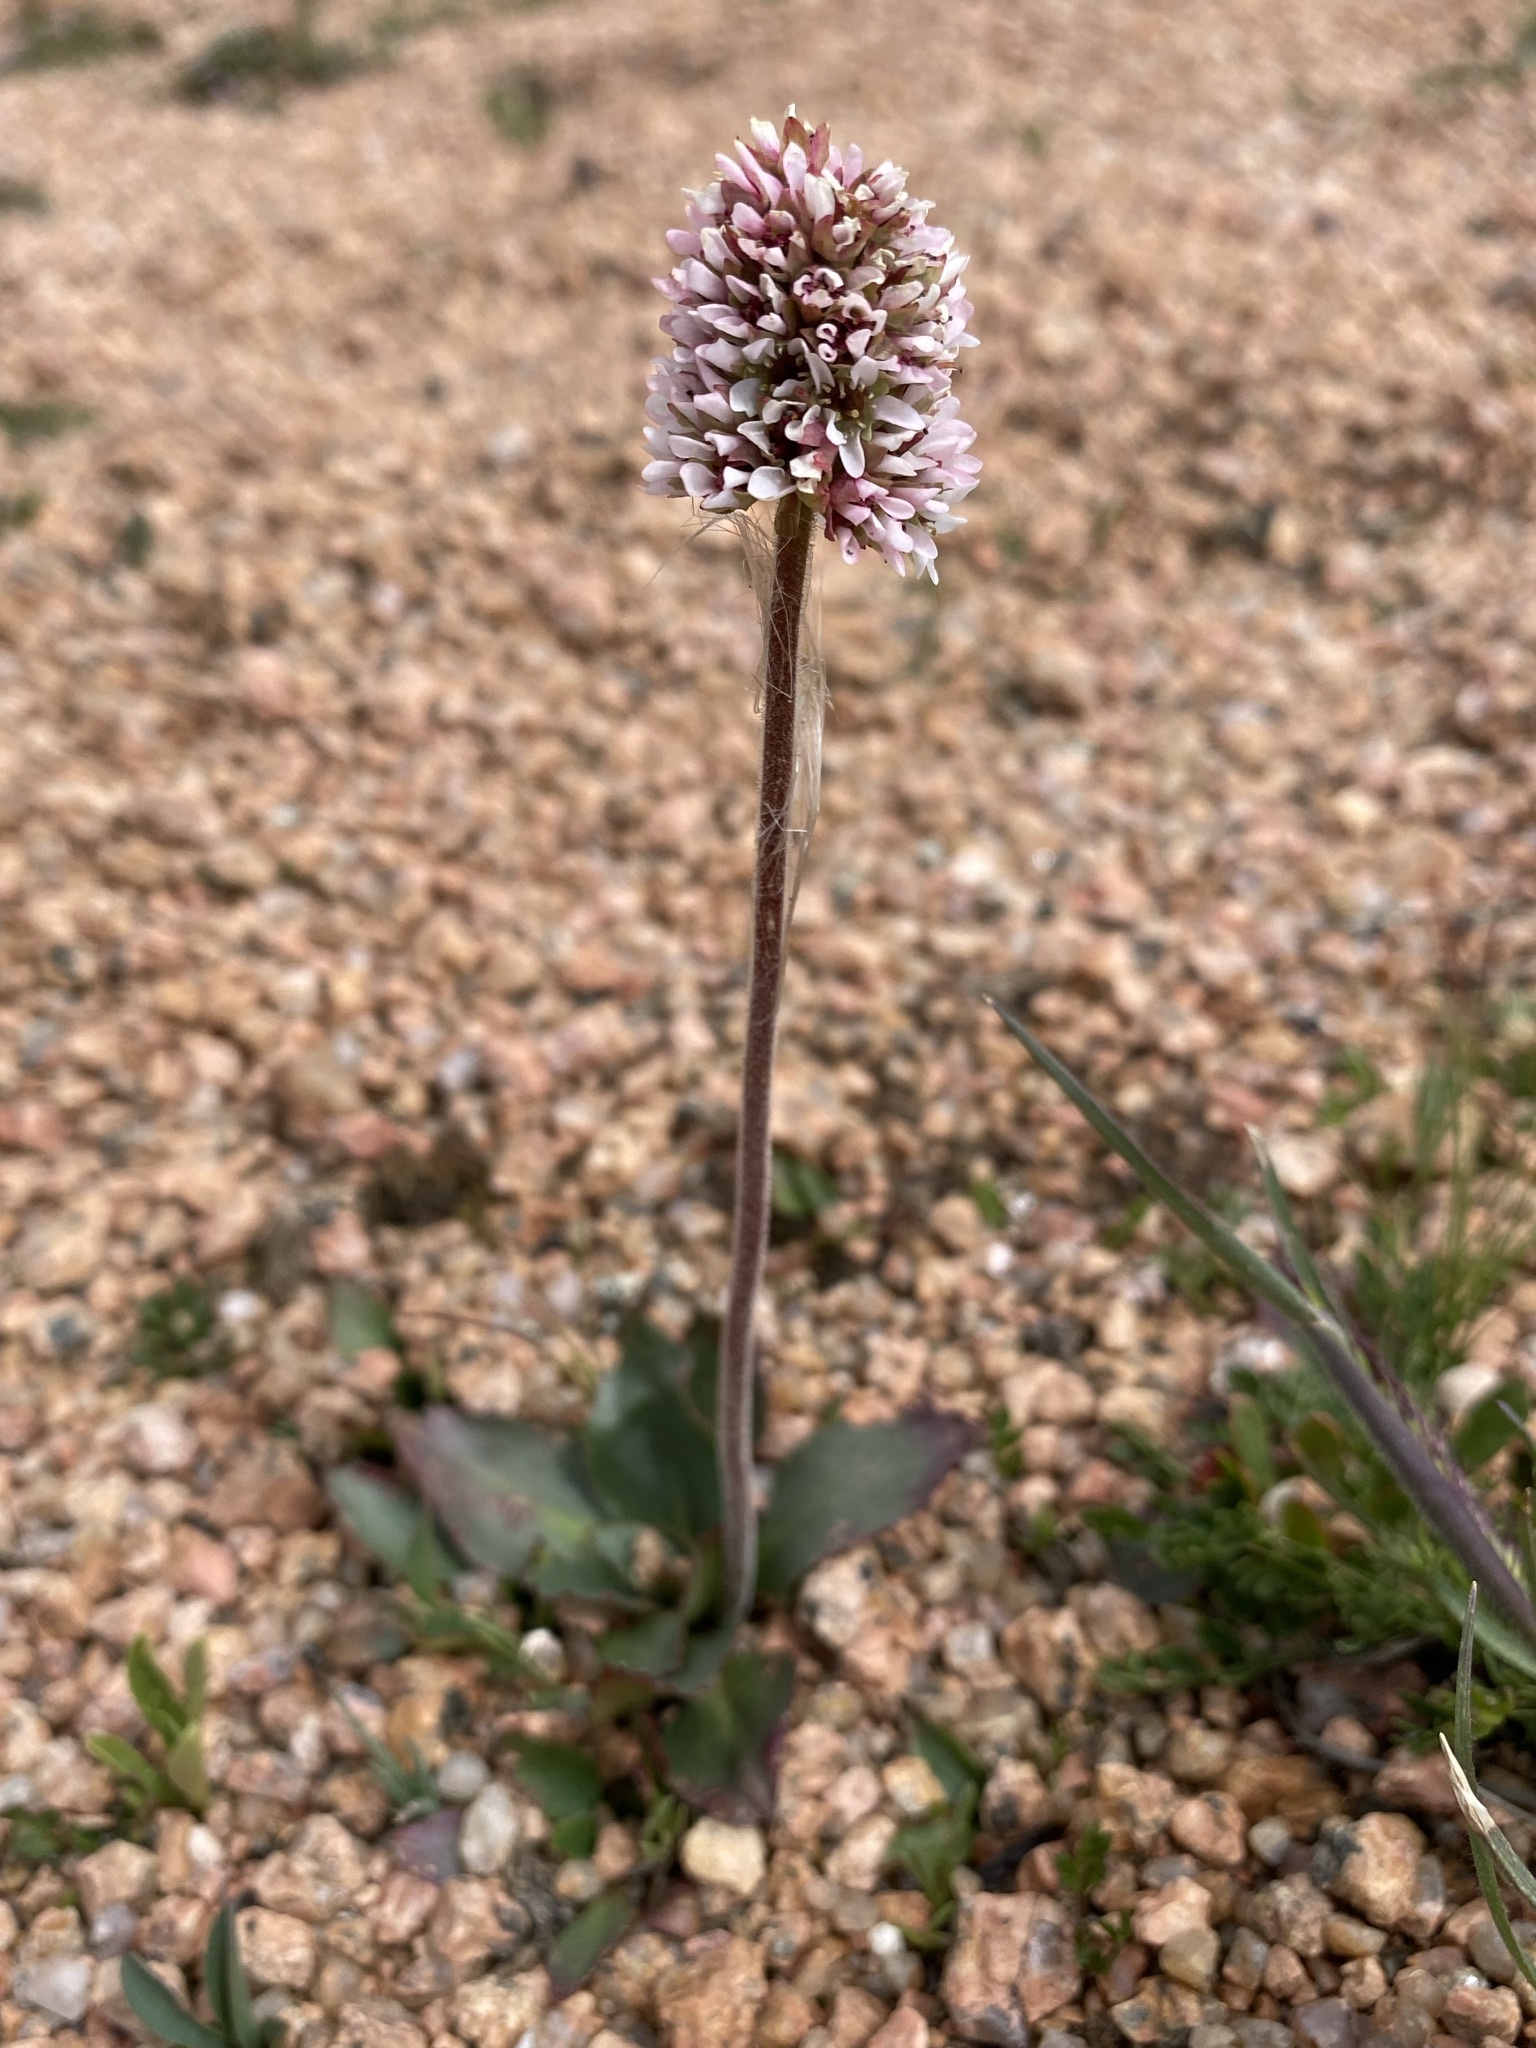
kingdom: Plantae
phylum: Tracheophyta
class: Magnoliopsida
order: Saxifragales
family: Saxifragaceae
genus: Micranthes
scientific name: Micranthes rhomboidea
